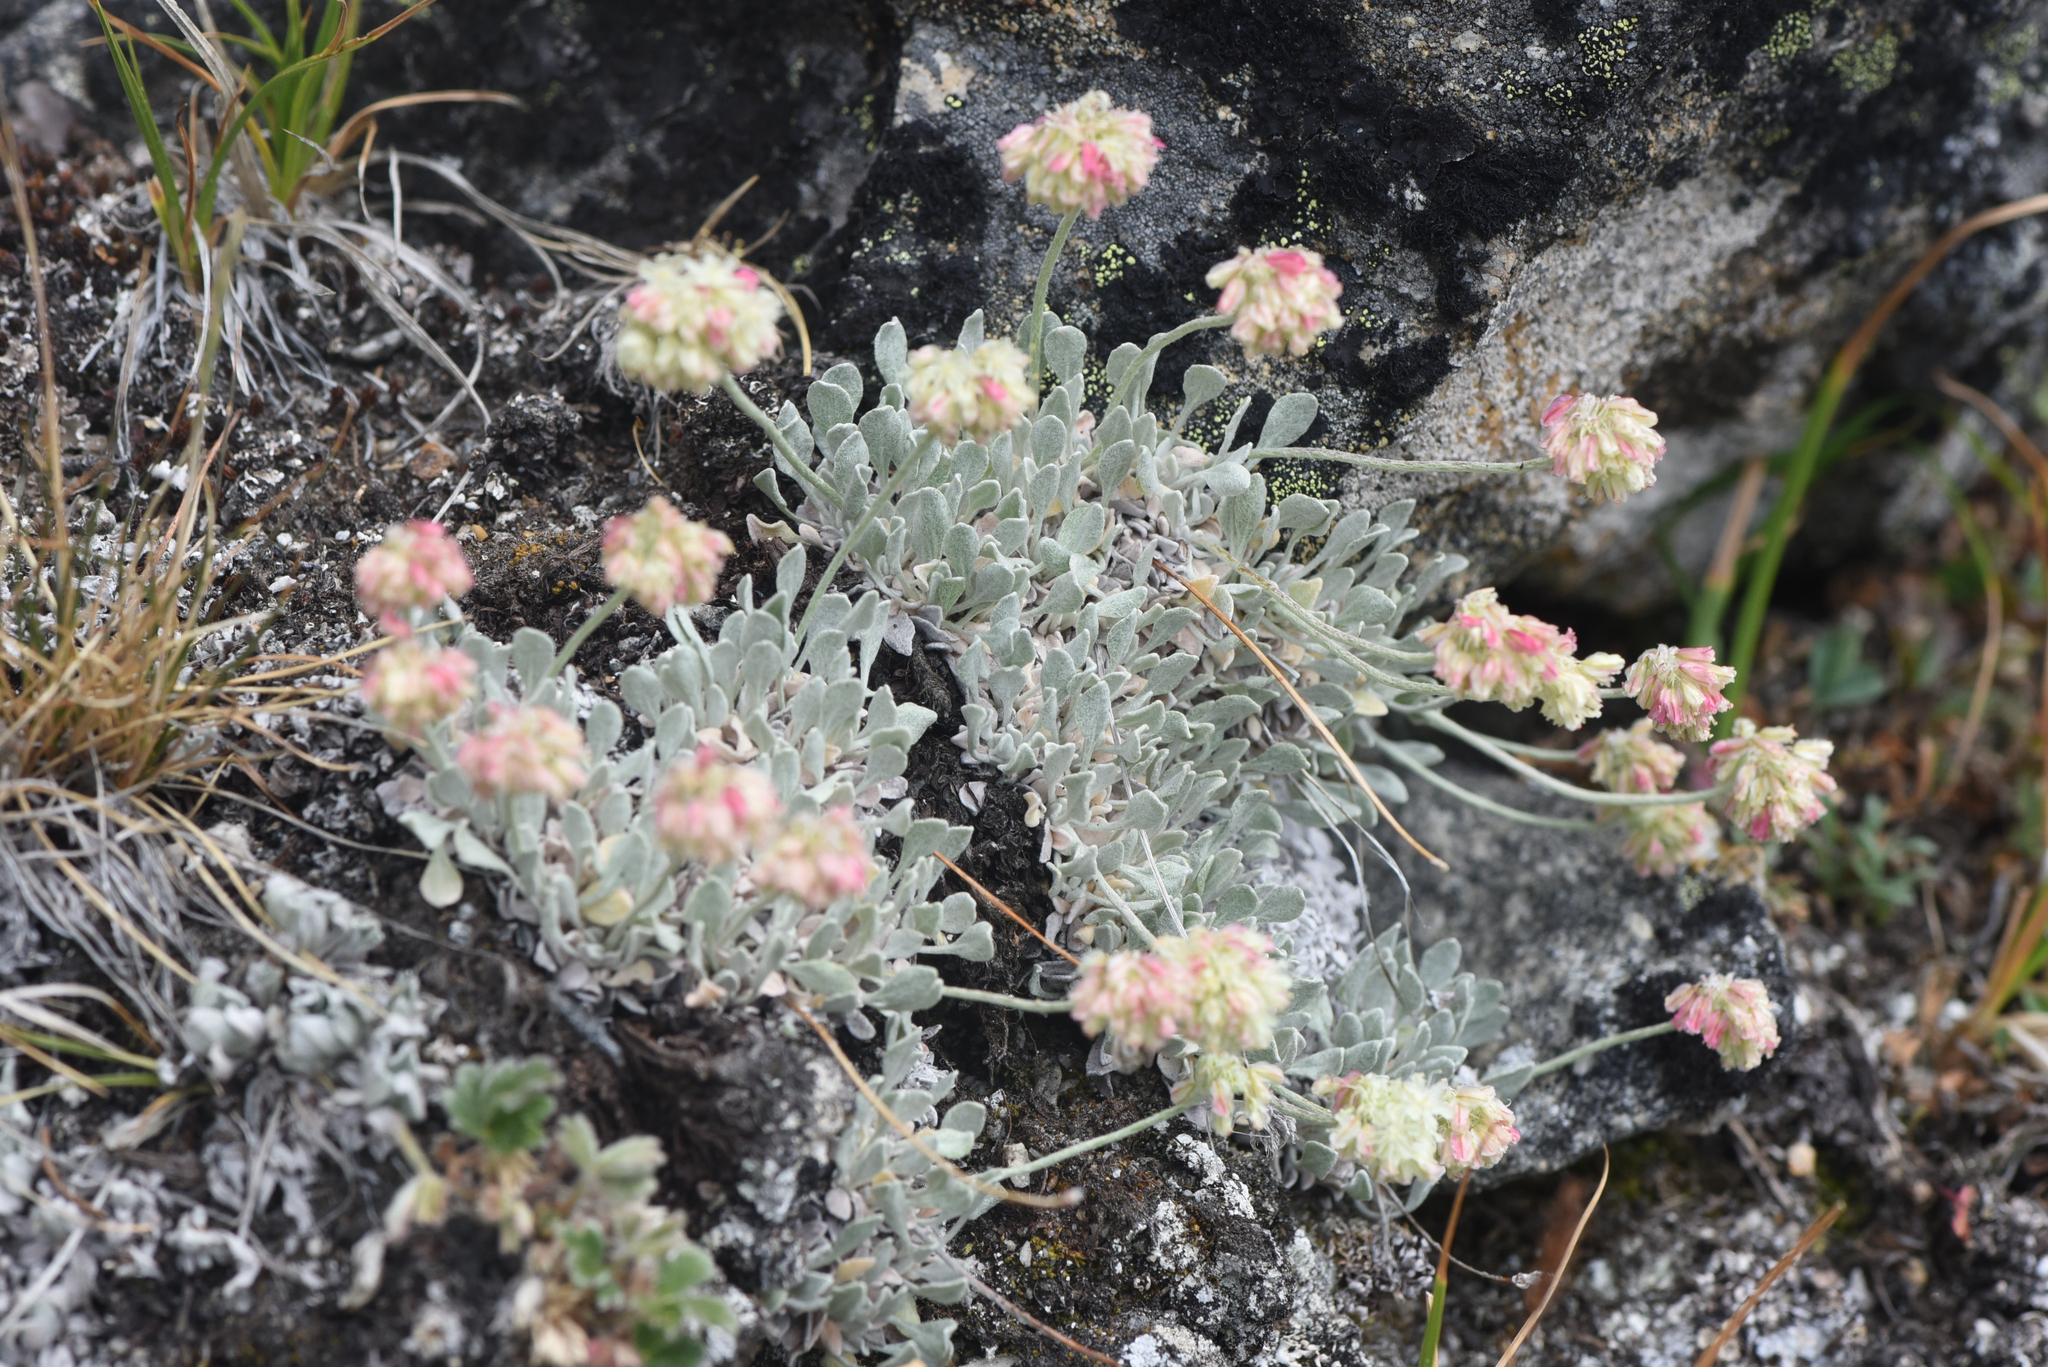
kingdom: Plantae
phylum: Tracheophyta
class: Magnoliopsida
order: Caryophyllales
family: Polygonaceae
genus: Eriogonum
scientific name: Eriogonum ovalifolium
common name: Cushion buckwheat
